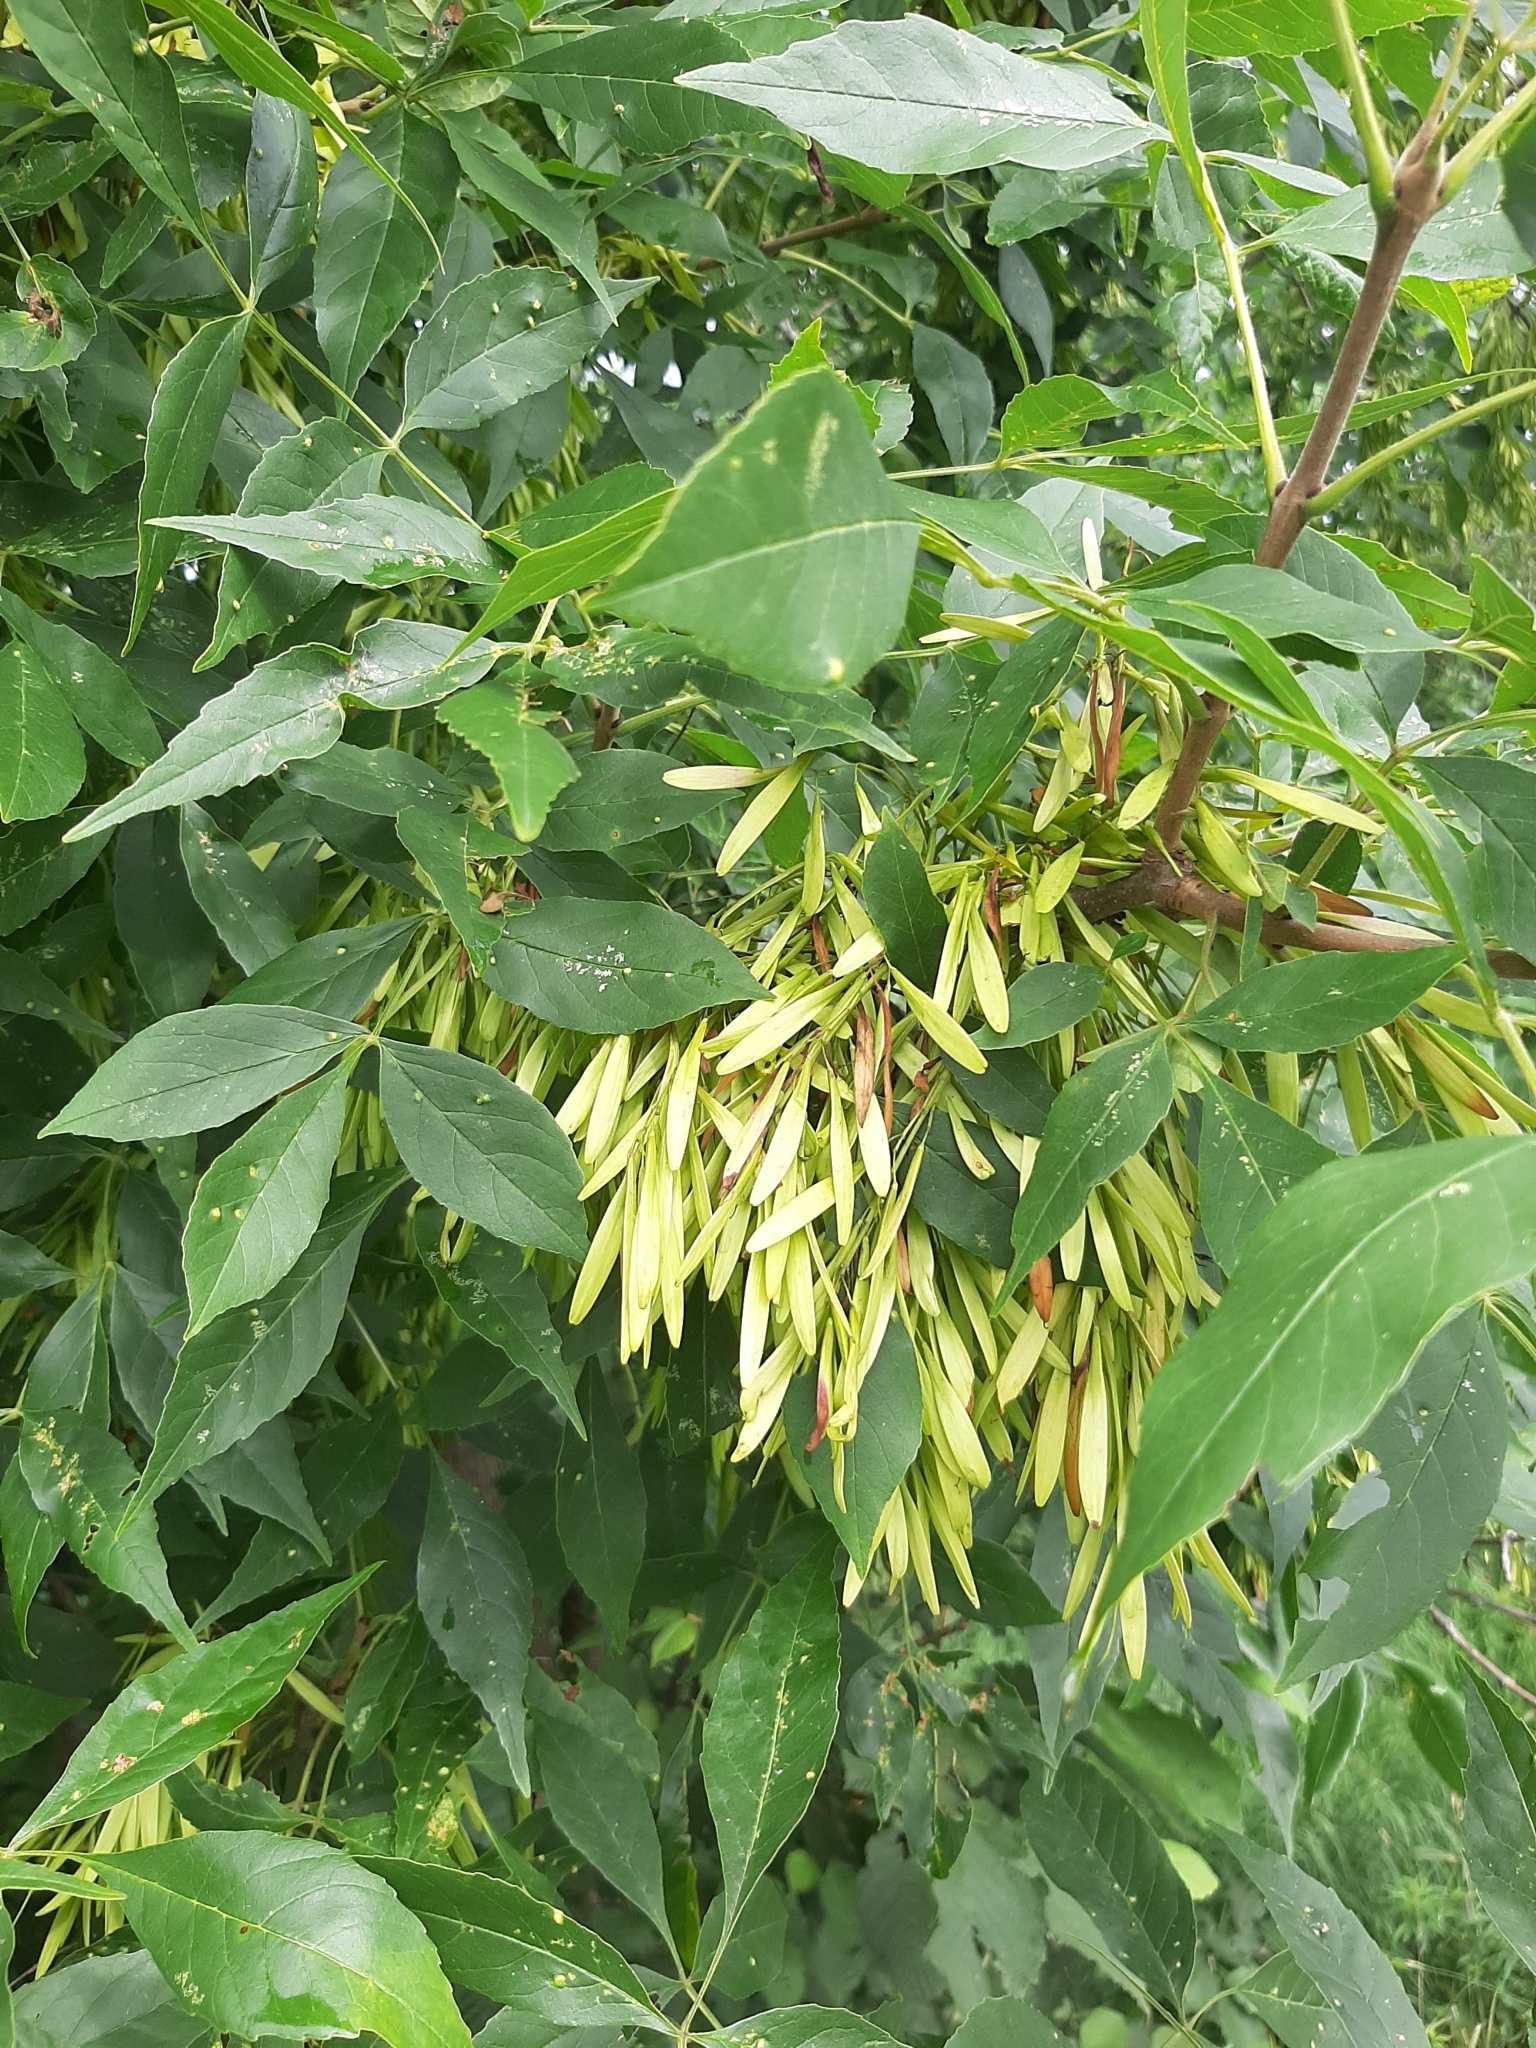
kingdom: Plantae
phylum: Tracheophyta
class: Magnoliopsida
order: Lamiales
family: Oleaceae
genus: Fraxinus
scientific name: Fraxinus pennsylvanica
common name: Green ash
